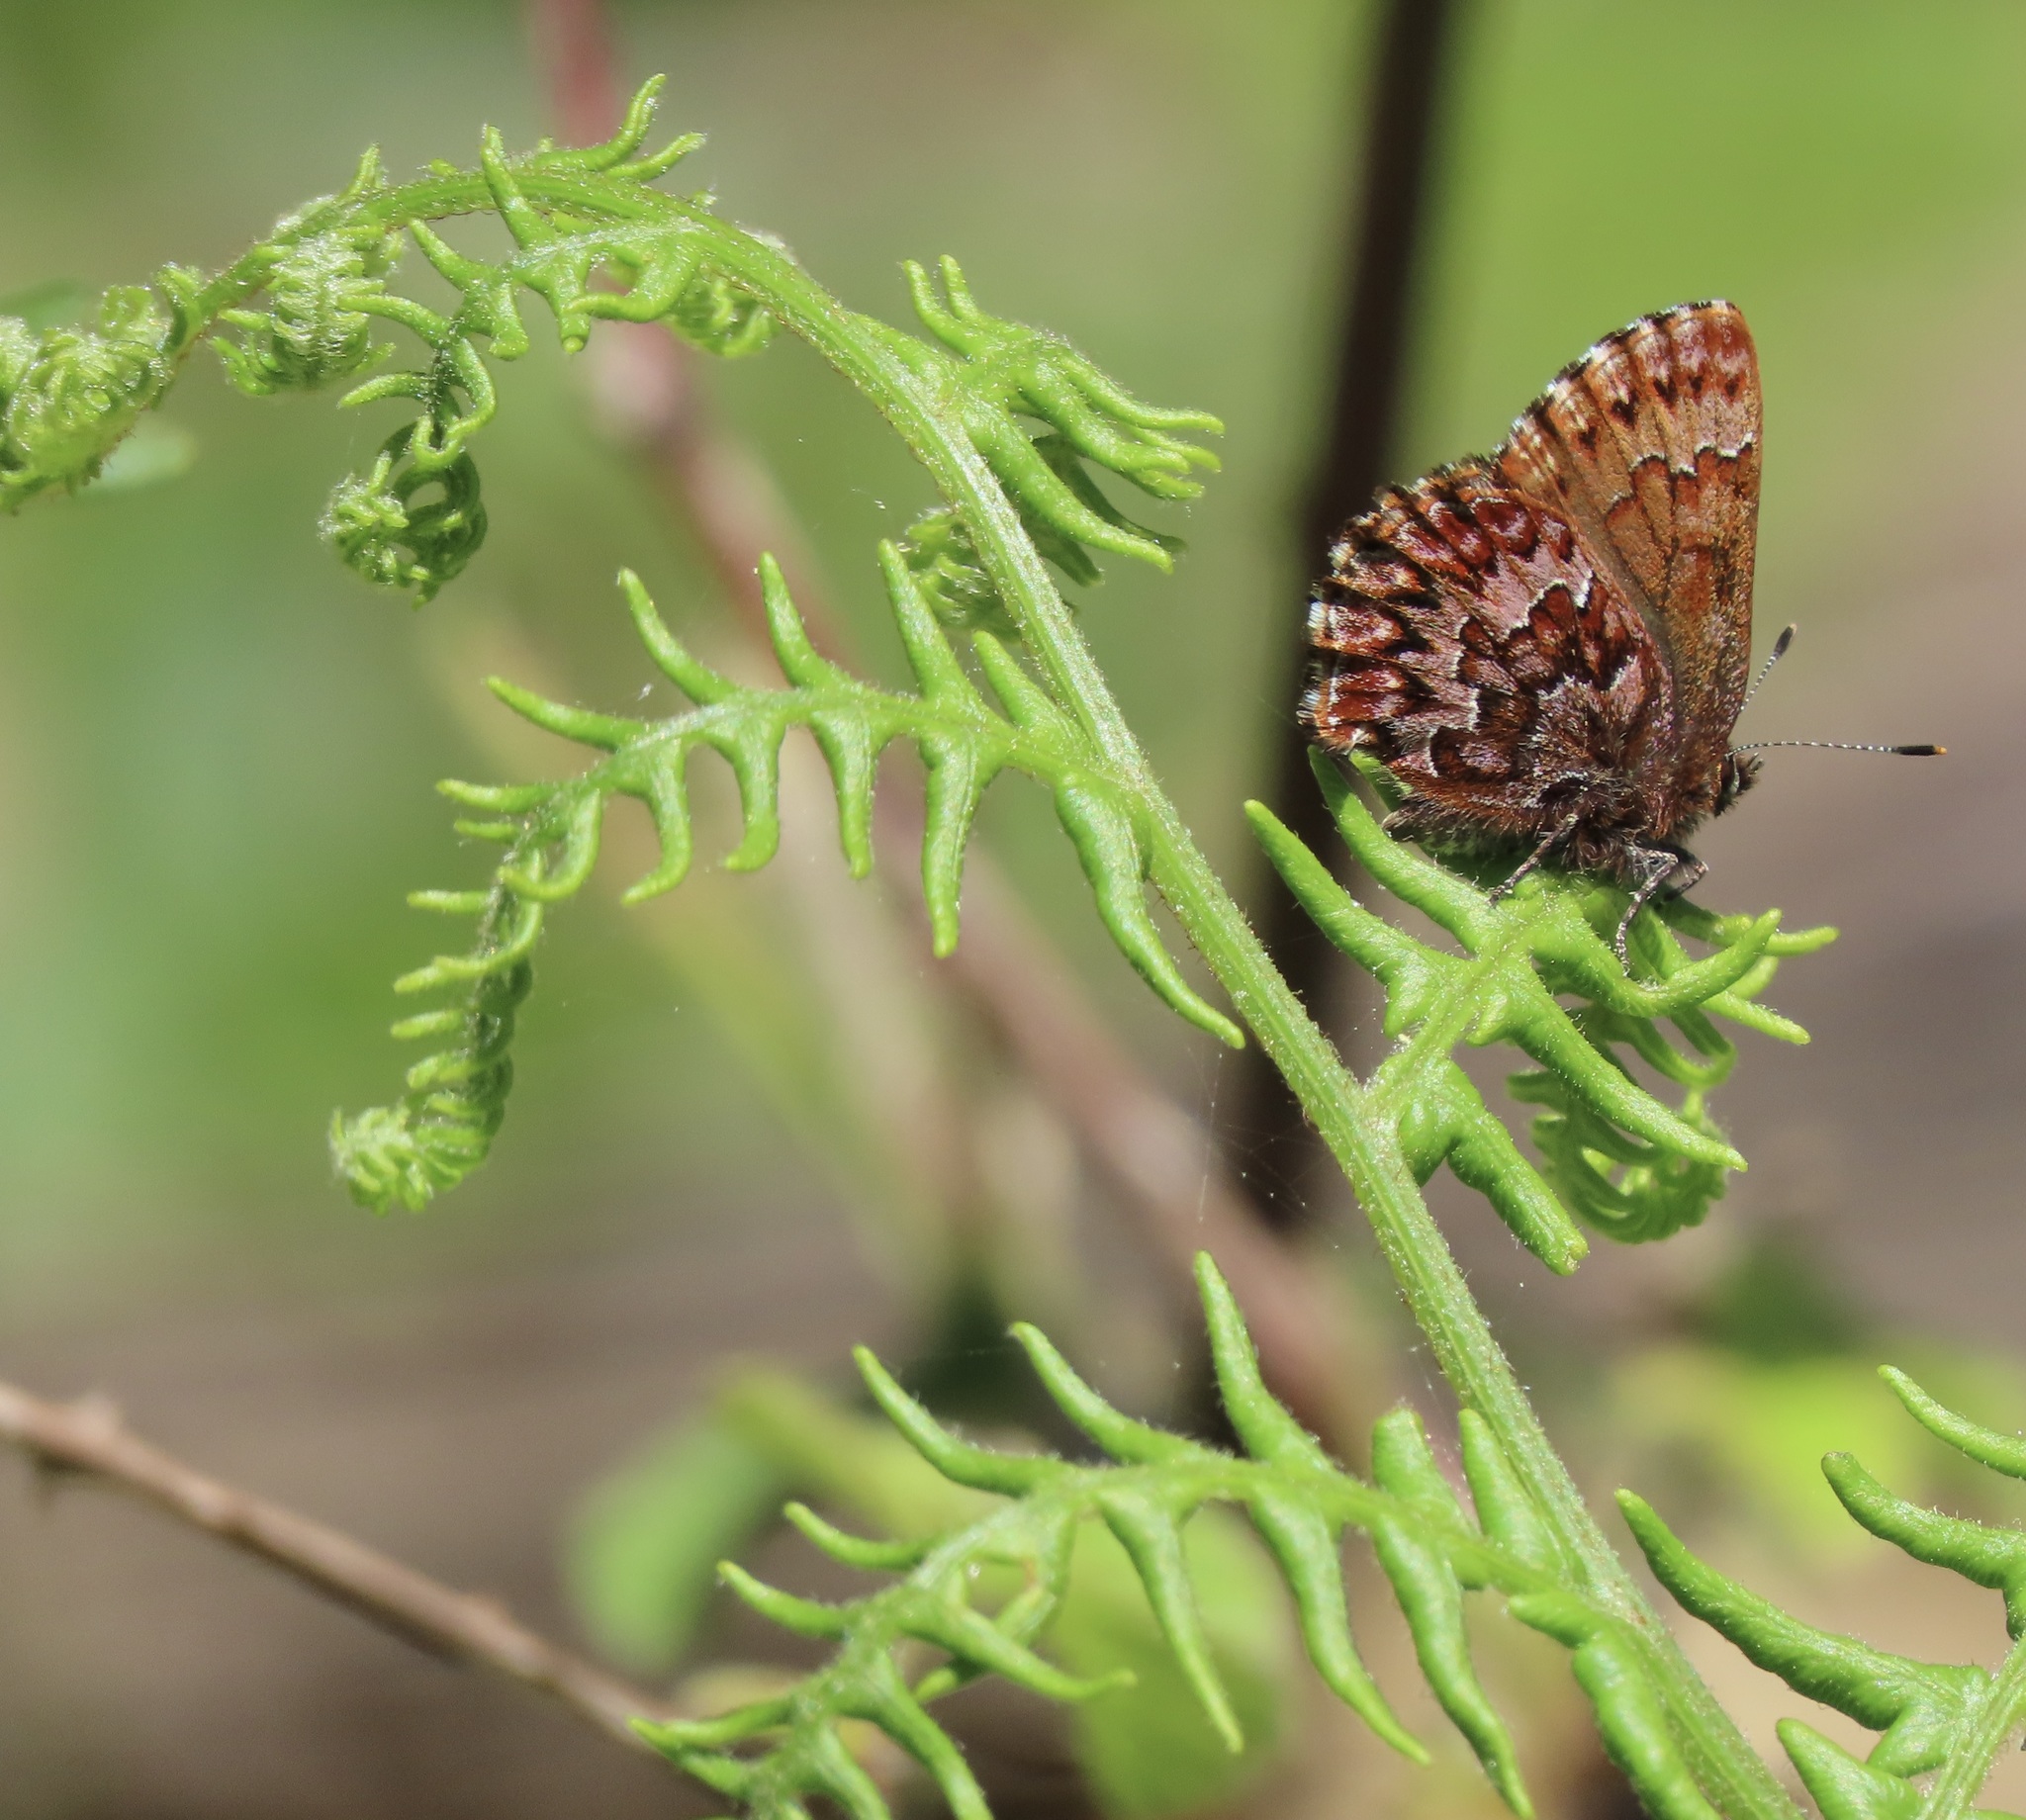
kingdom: Animalia
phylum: Arthropoda
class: Insecta
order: Lepidoptera
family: Lycaenidae
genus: Incisalia
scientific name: Incisalia eryphon
